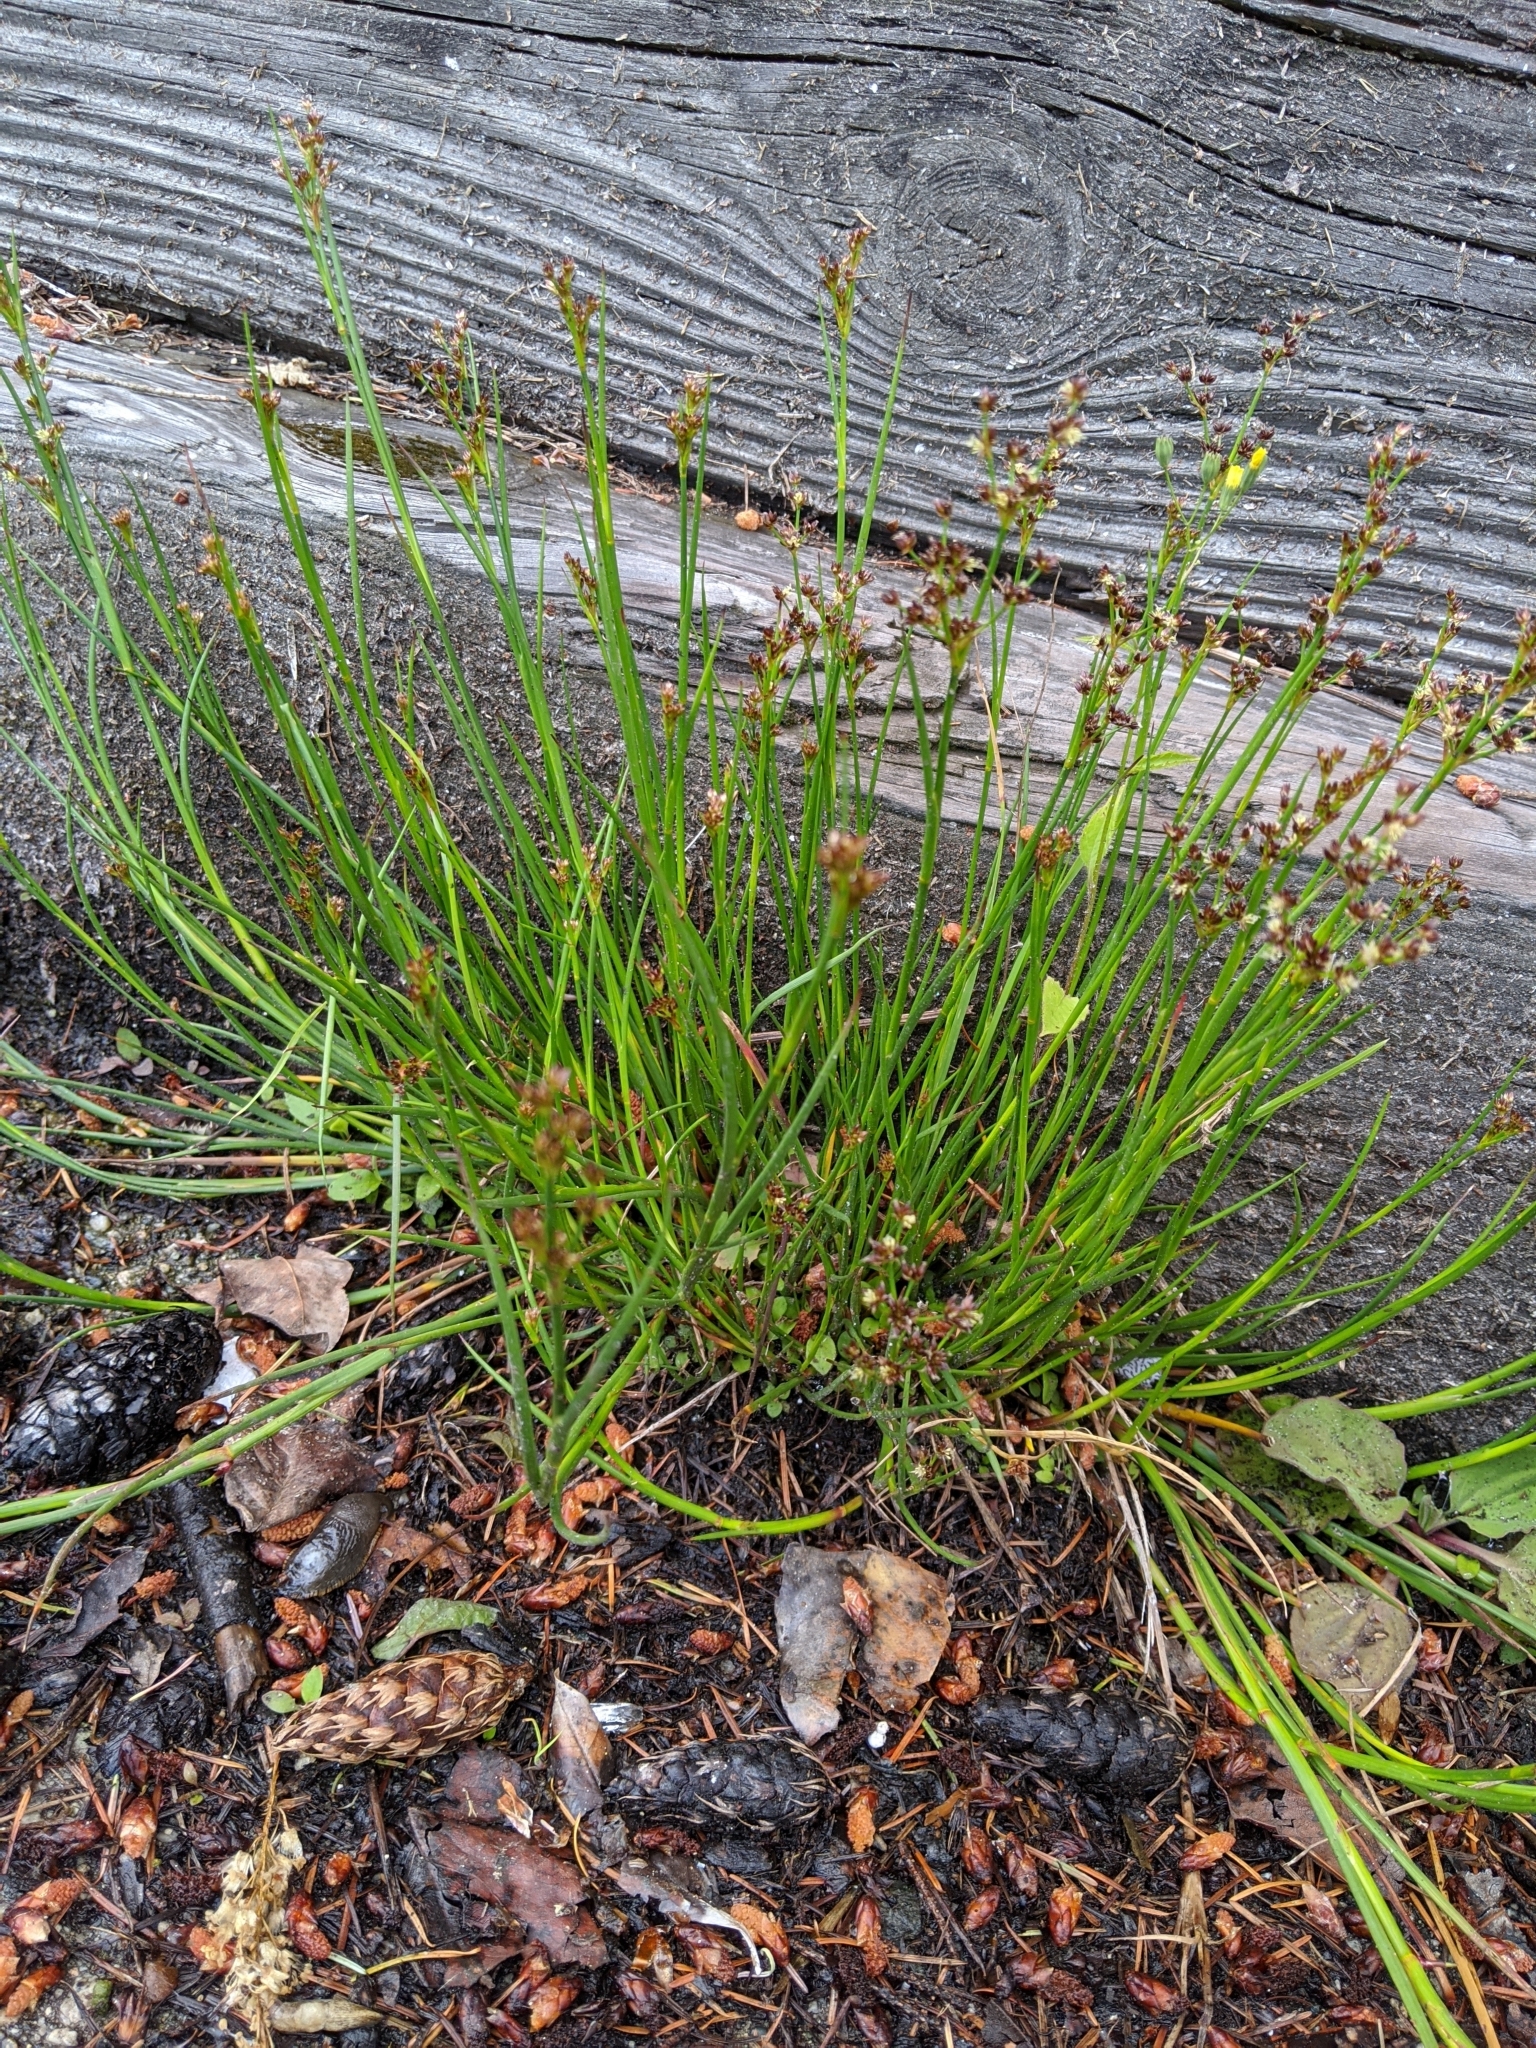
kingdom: Plantae
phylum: Tracheophyta
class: Liliopsida
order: Poales
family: Juncaceae
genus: Juncus
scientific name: Juncus articulatus
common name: Jointed rush
